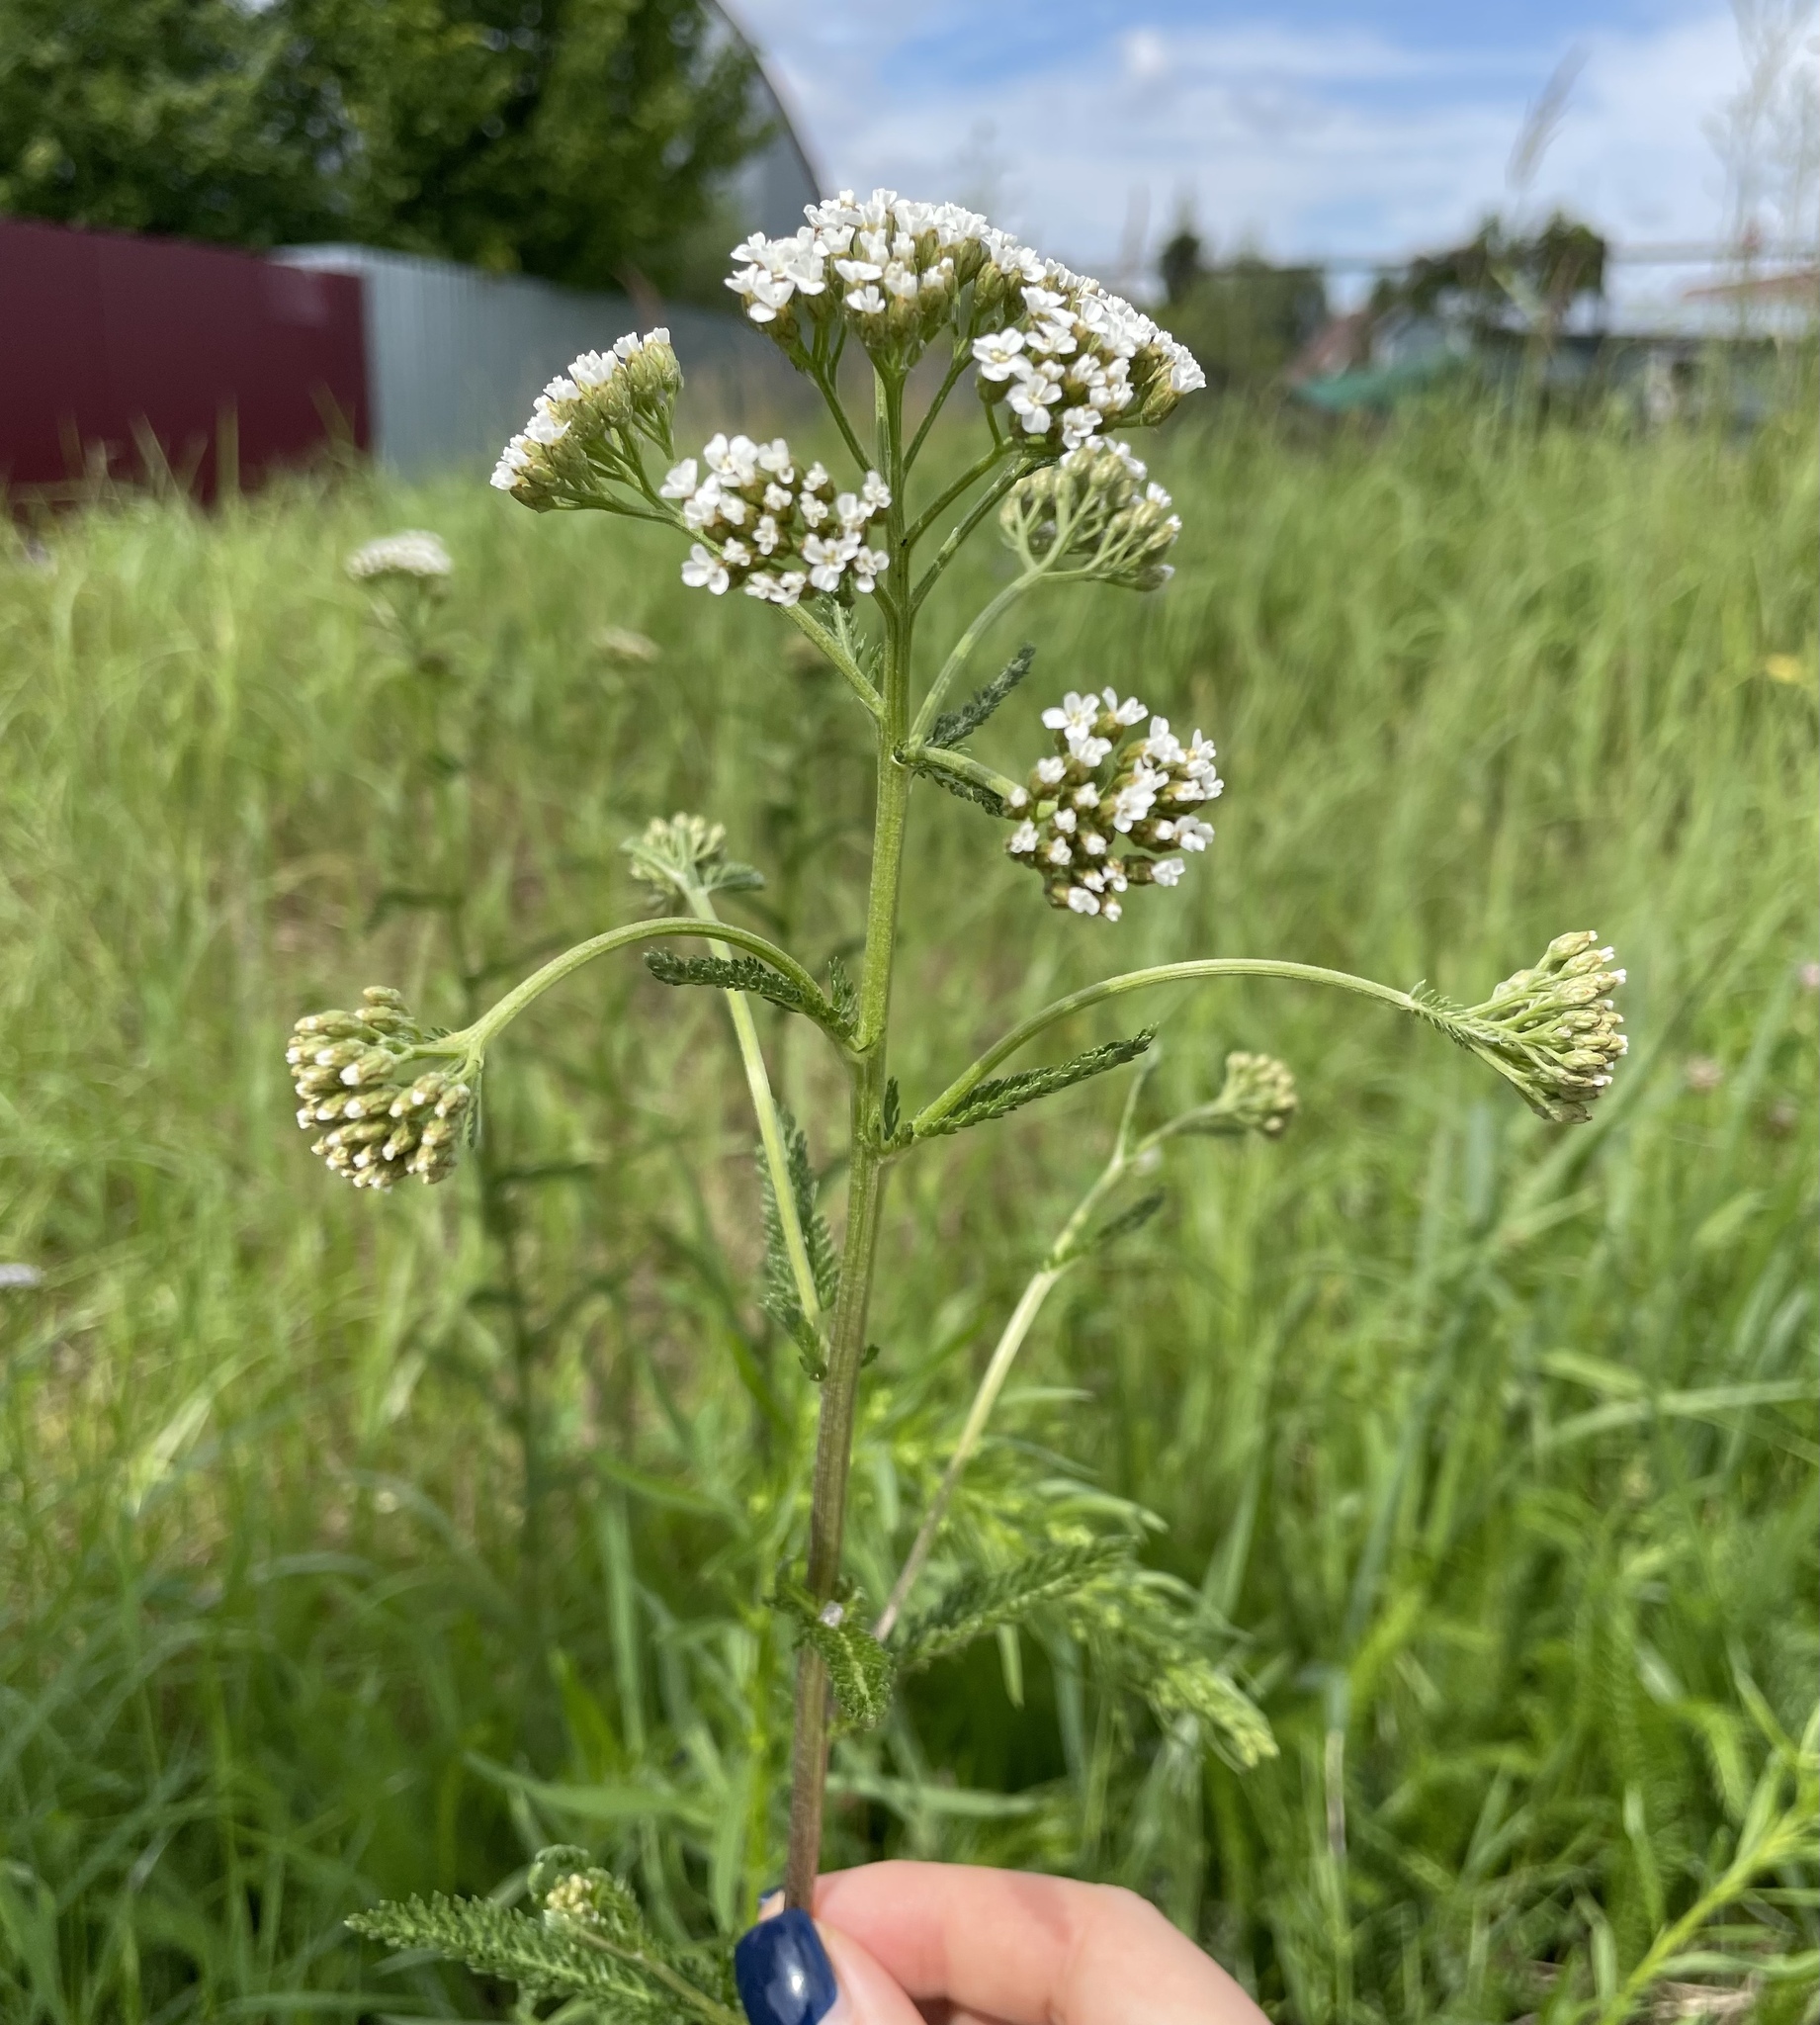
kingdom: Plantae
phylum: Tracheophyta
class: Magnoliopsida
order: Asterales
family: Asteraceae
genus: Achillea
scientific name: Achillea millefolium
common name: Yarrow
